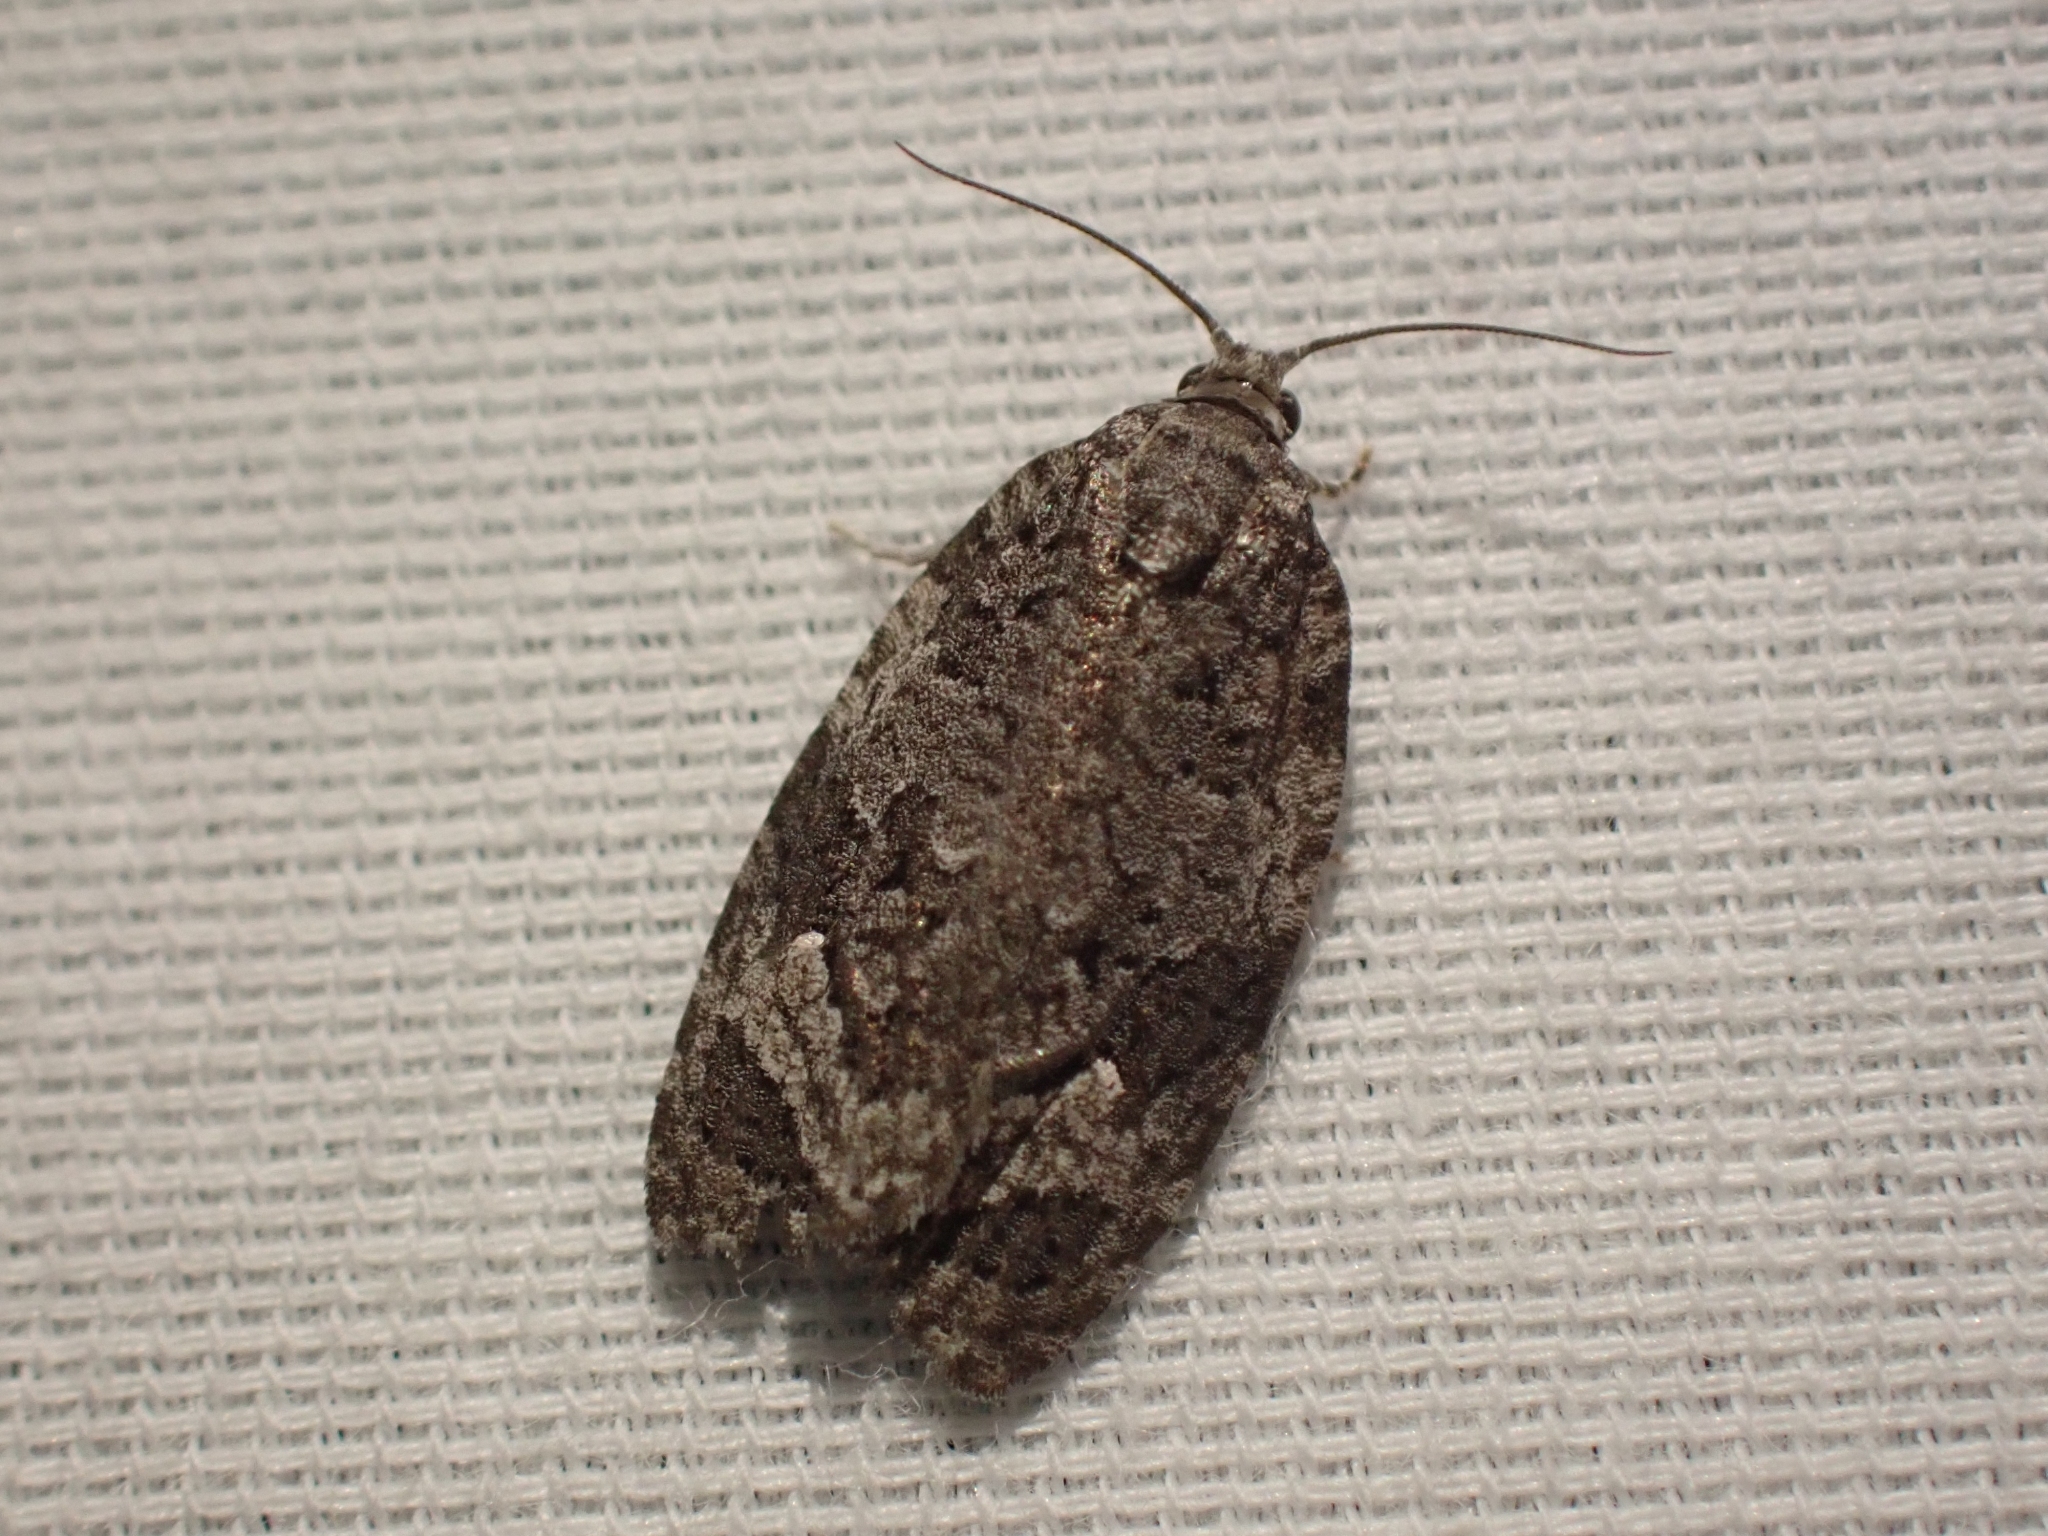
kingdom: Animalia
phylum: Arthropoda
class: Insecta
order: Lepidoptera
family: Tortricidae
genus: Apotomis
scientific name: Apotomis removana
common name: Green aspen leafroller
